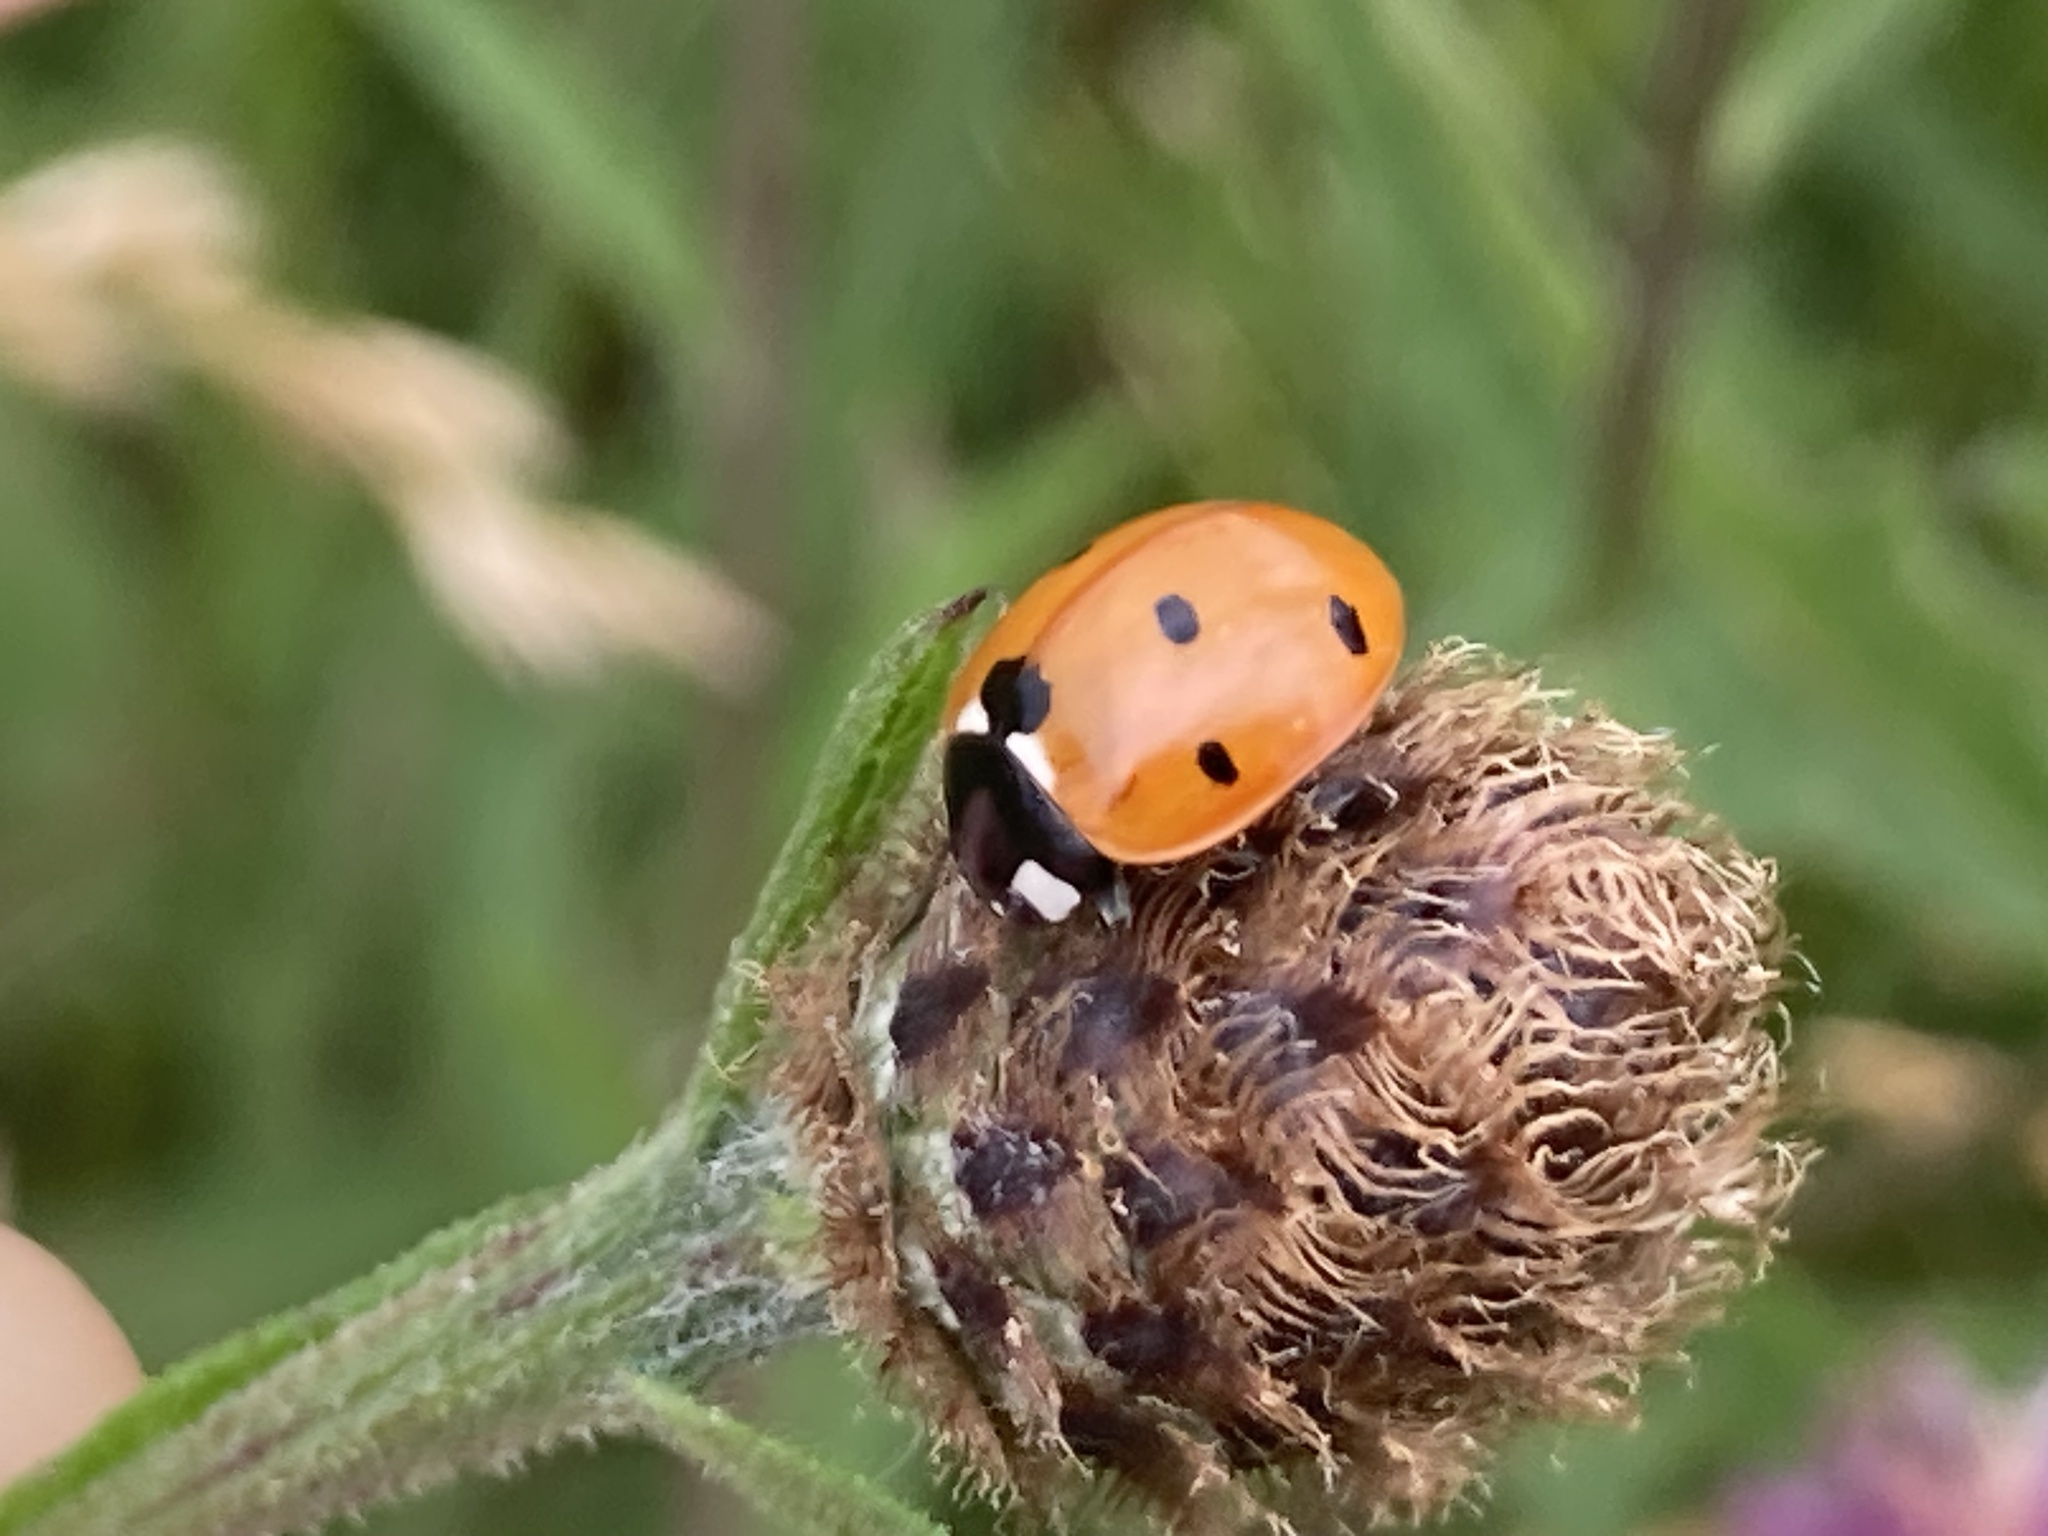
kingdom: Animalia
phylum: Arthropoda
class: Insecta
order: Coleoptera
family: Coccinellidae
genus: Coccinella
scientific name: Coccinella septempunctata
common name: Sevenspotted lady beetle
